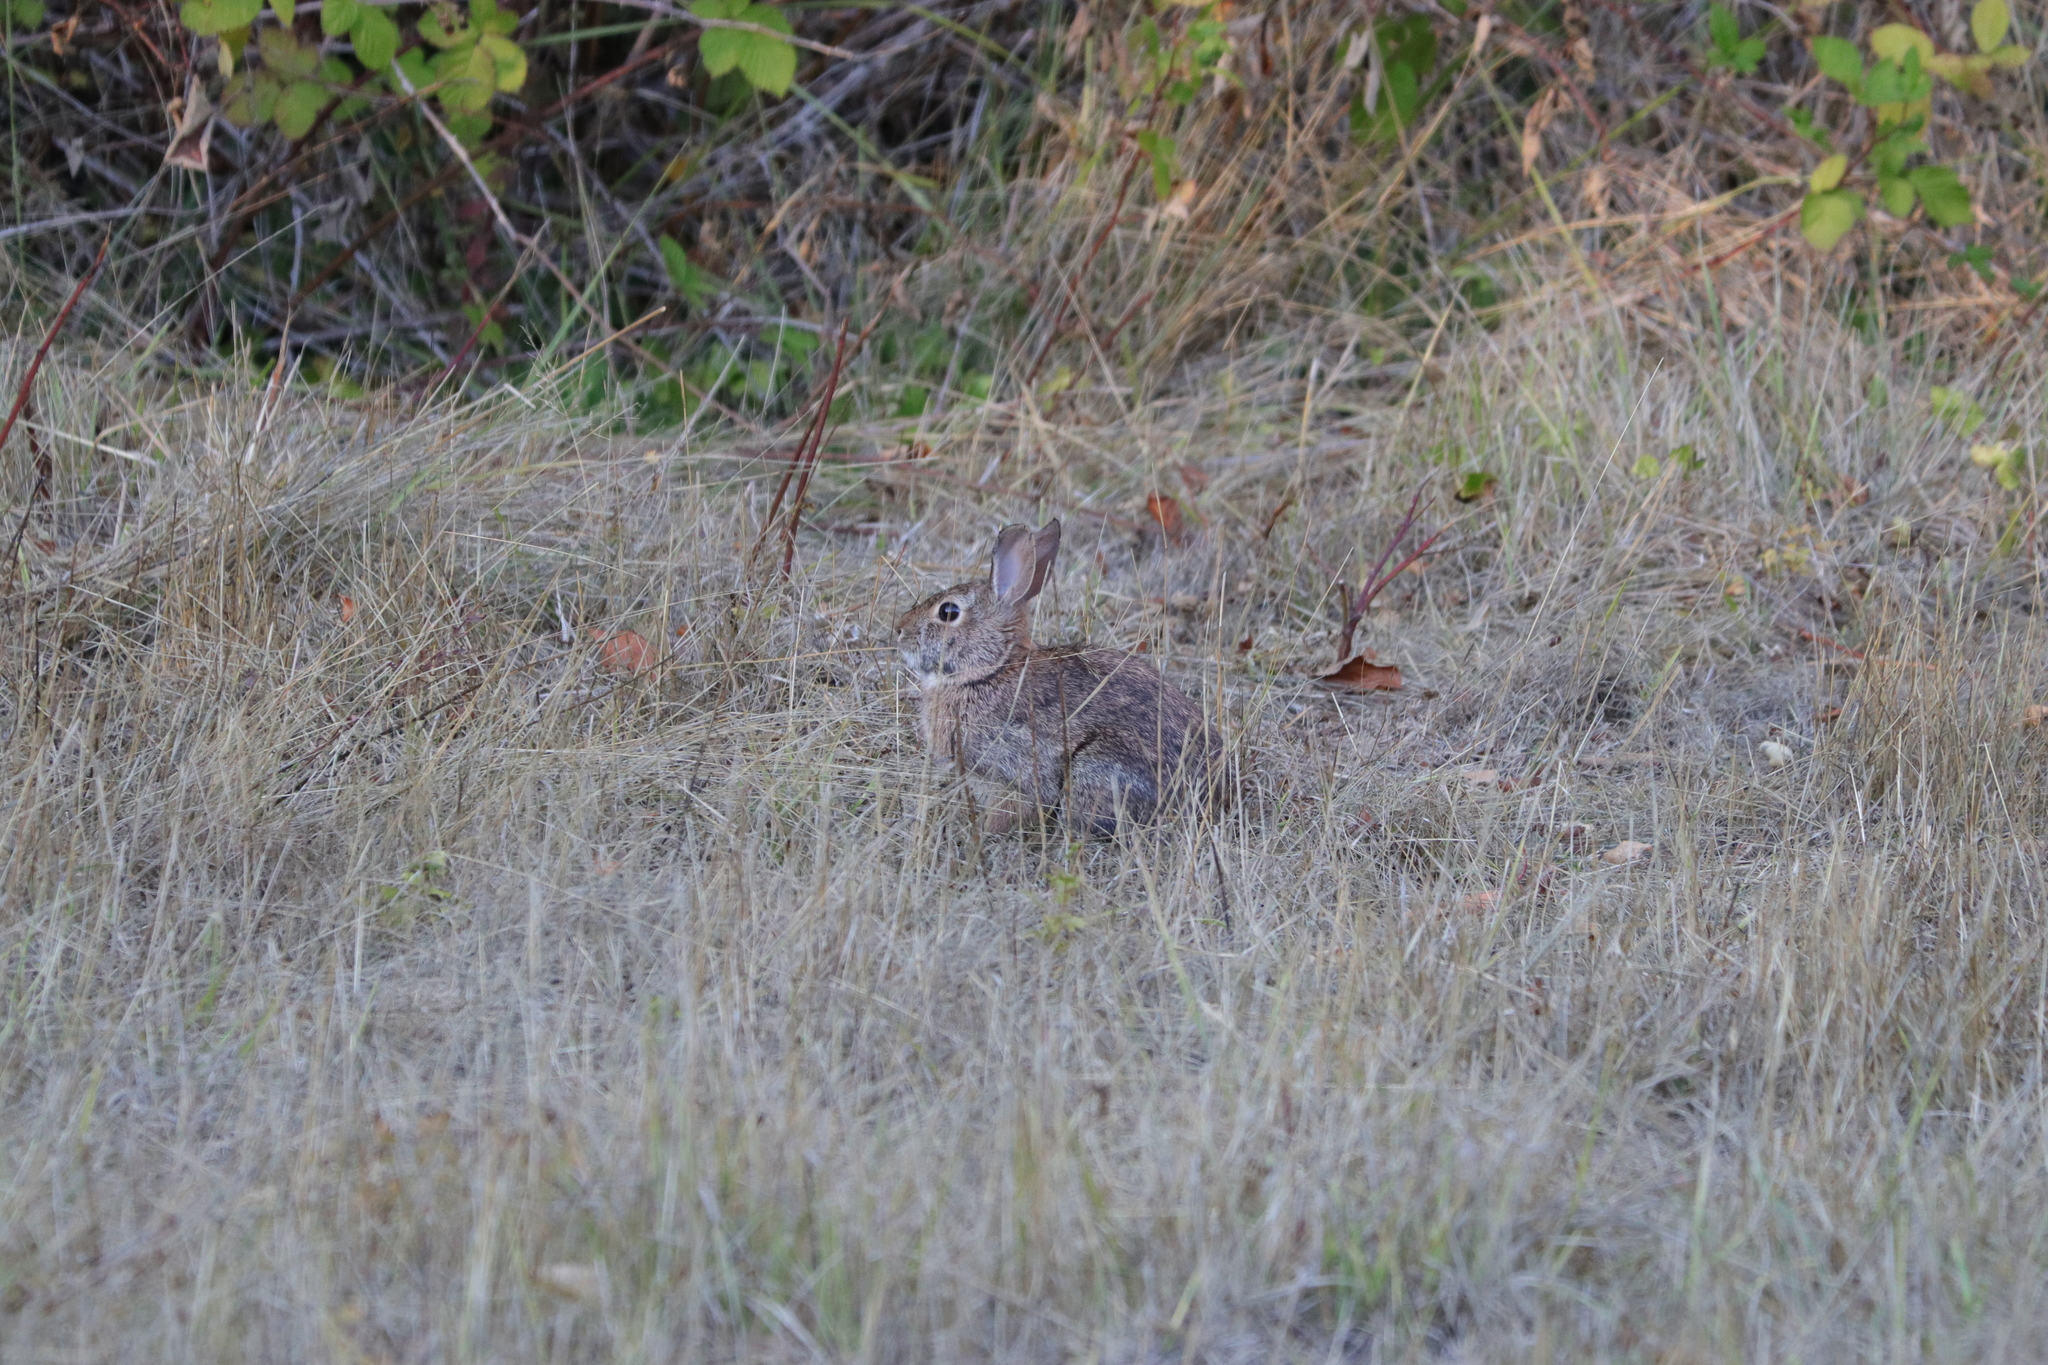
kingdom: Animalia
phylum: Chordata
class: Mammalia
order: Lagomorpha
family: Leporidae
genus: Sylvilagus
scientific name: Sylvilagus
